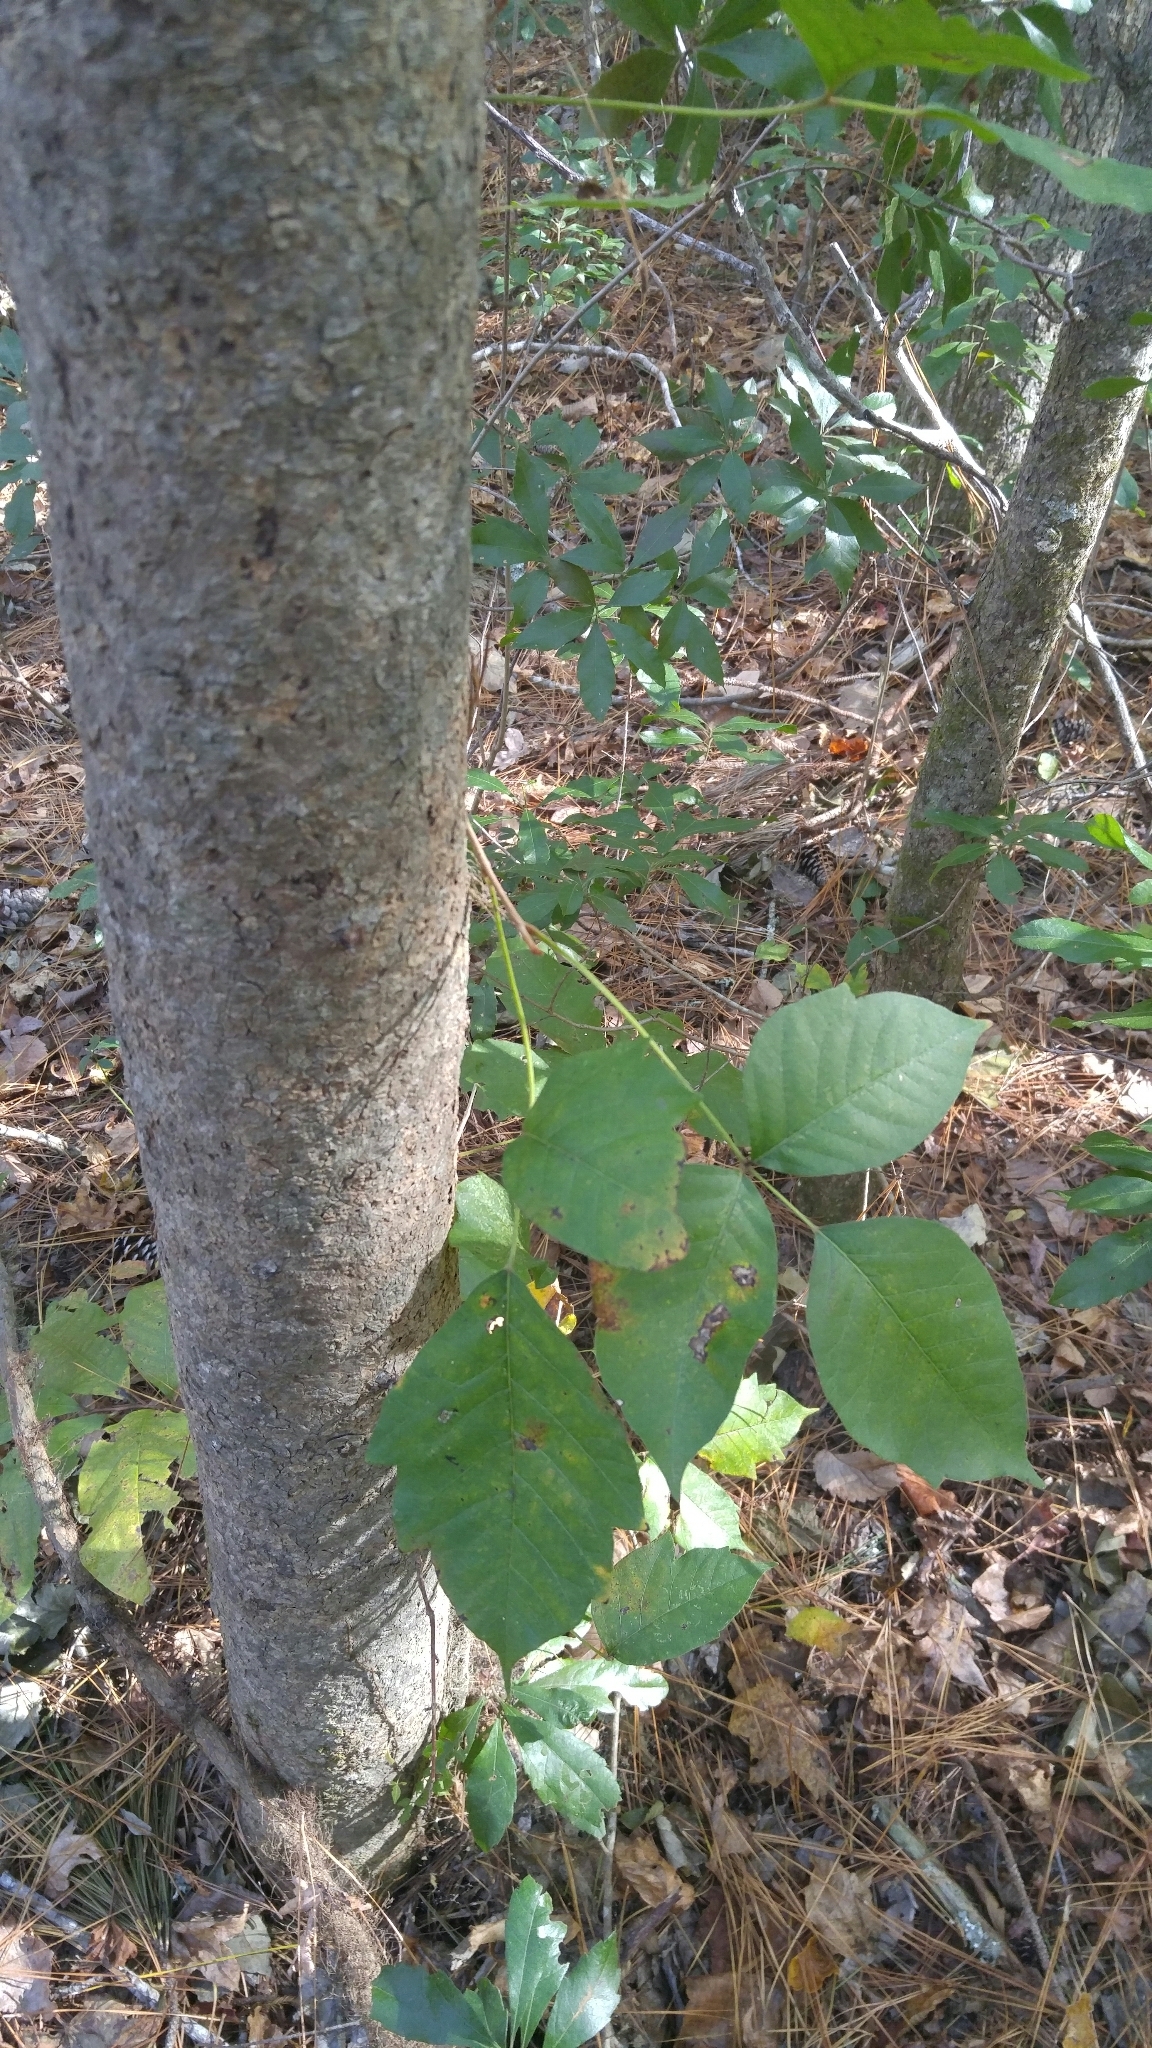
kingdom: Plantae
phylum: Tracheophyta
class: Magnoliopsida
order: Sapindales
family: Anacardiaceae
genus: Toxicodendron
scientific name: Toxicodendron radicans
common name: Poison ivy
